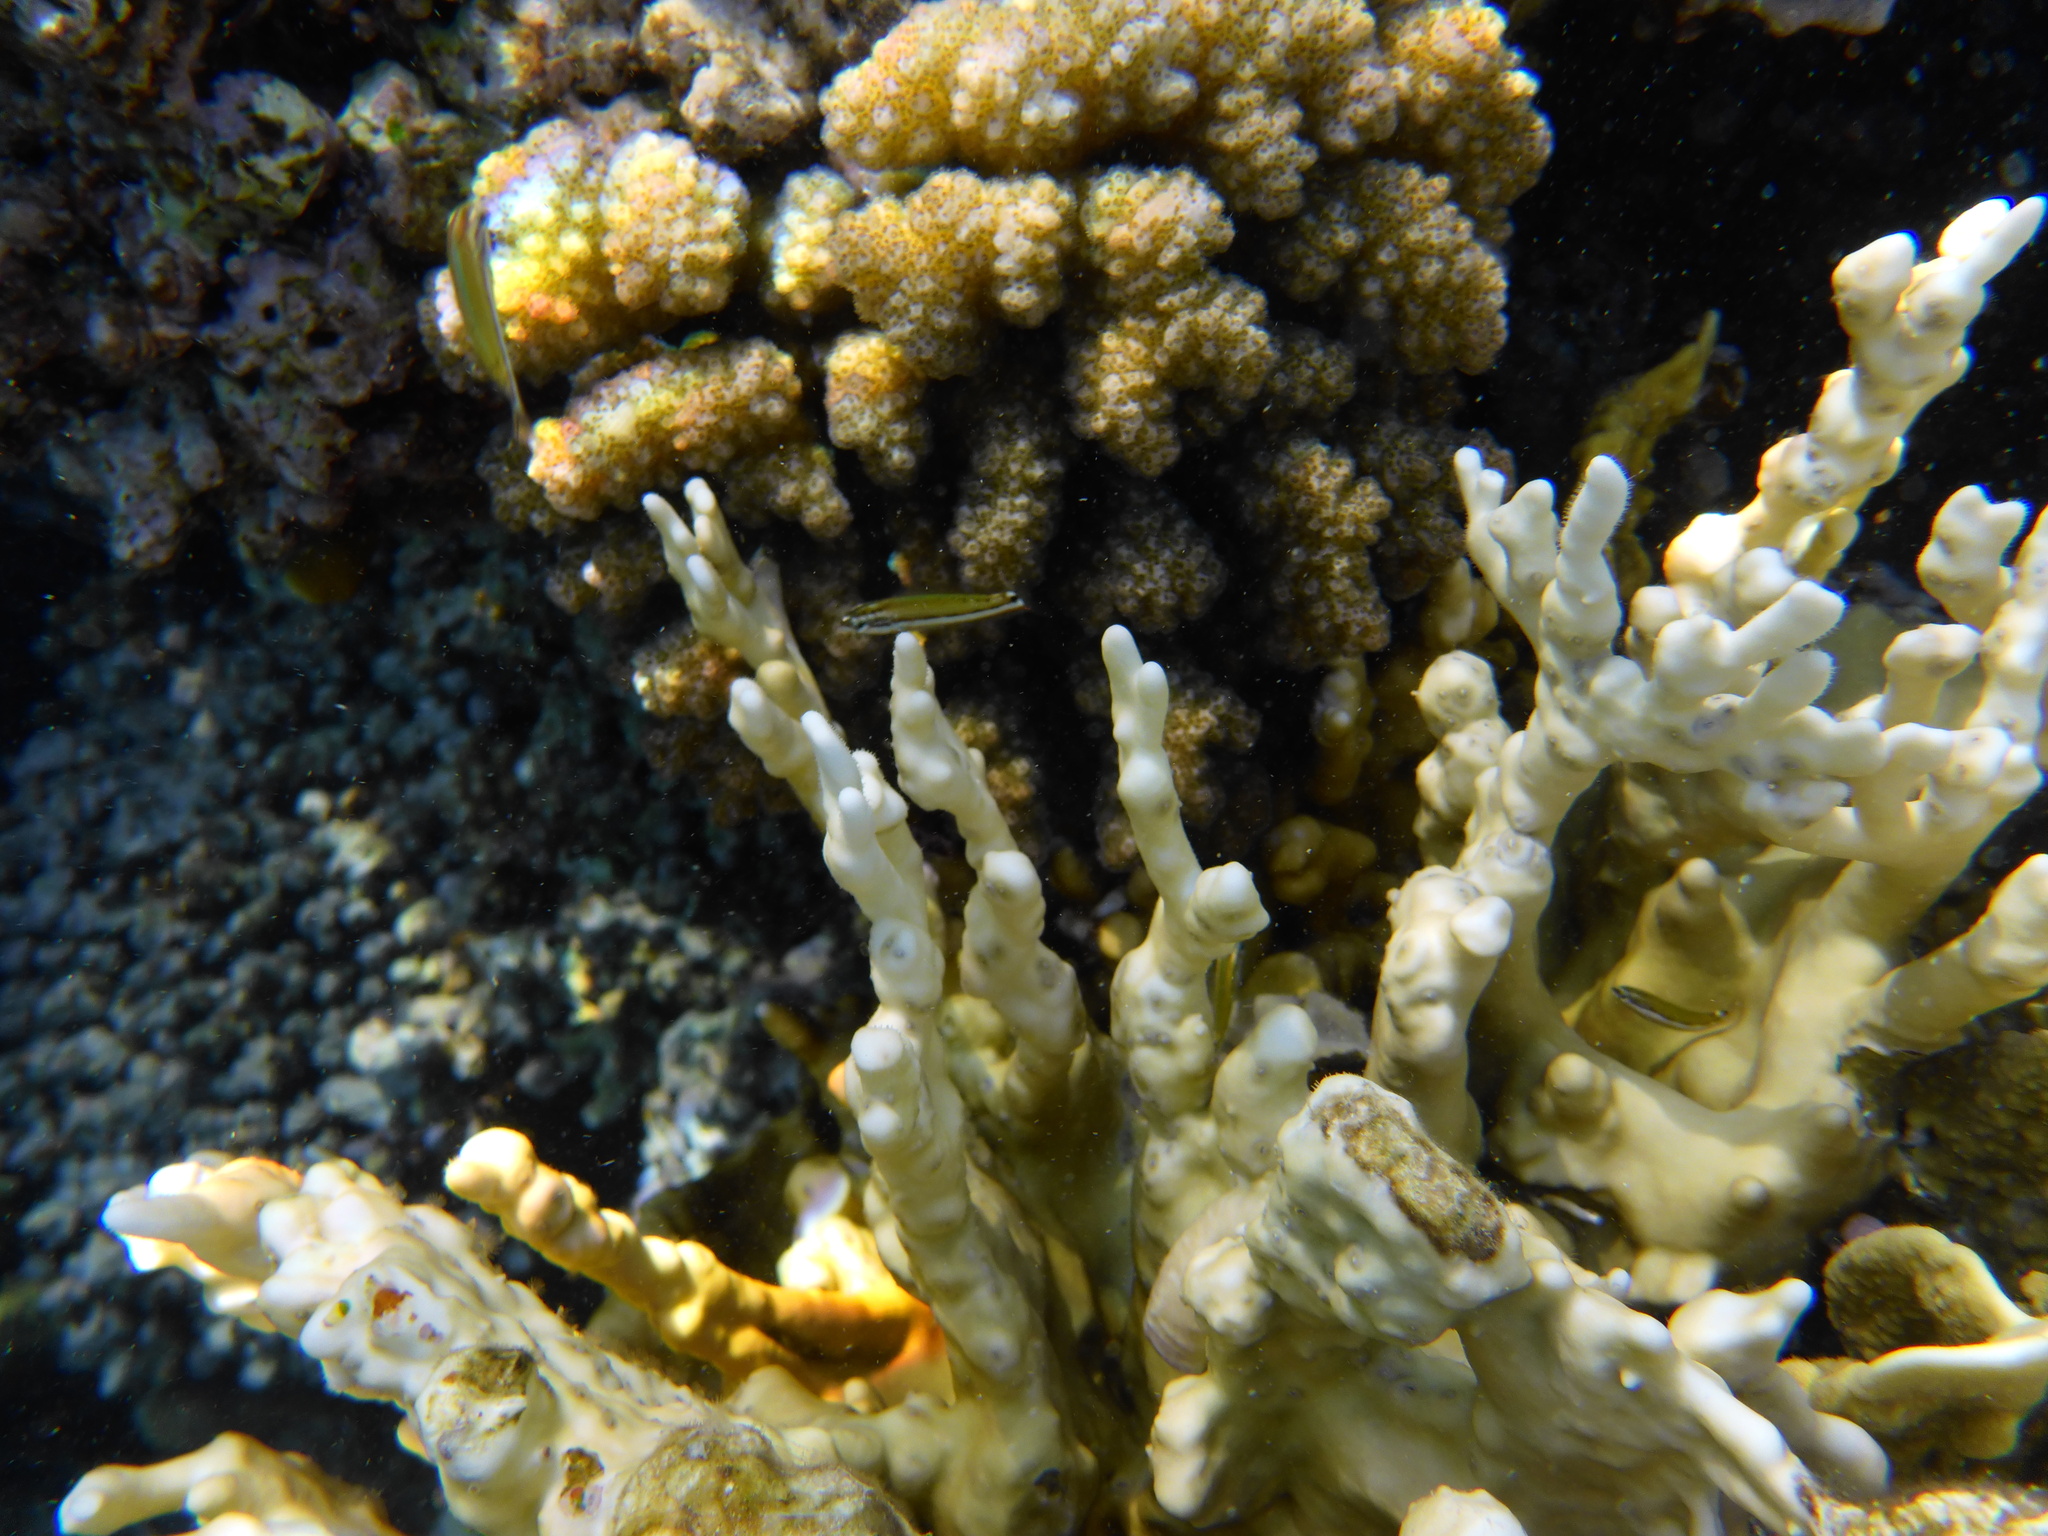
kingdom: Animalia
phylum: Chordata
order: Perciformes
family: Labridae
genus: Thalassoma
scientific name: Thalassoma rueppellii
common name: Klunzinger's wrasse
